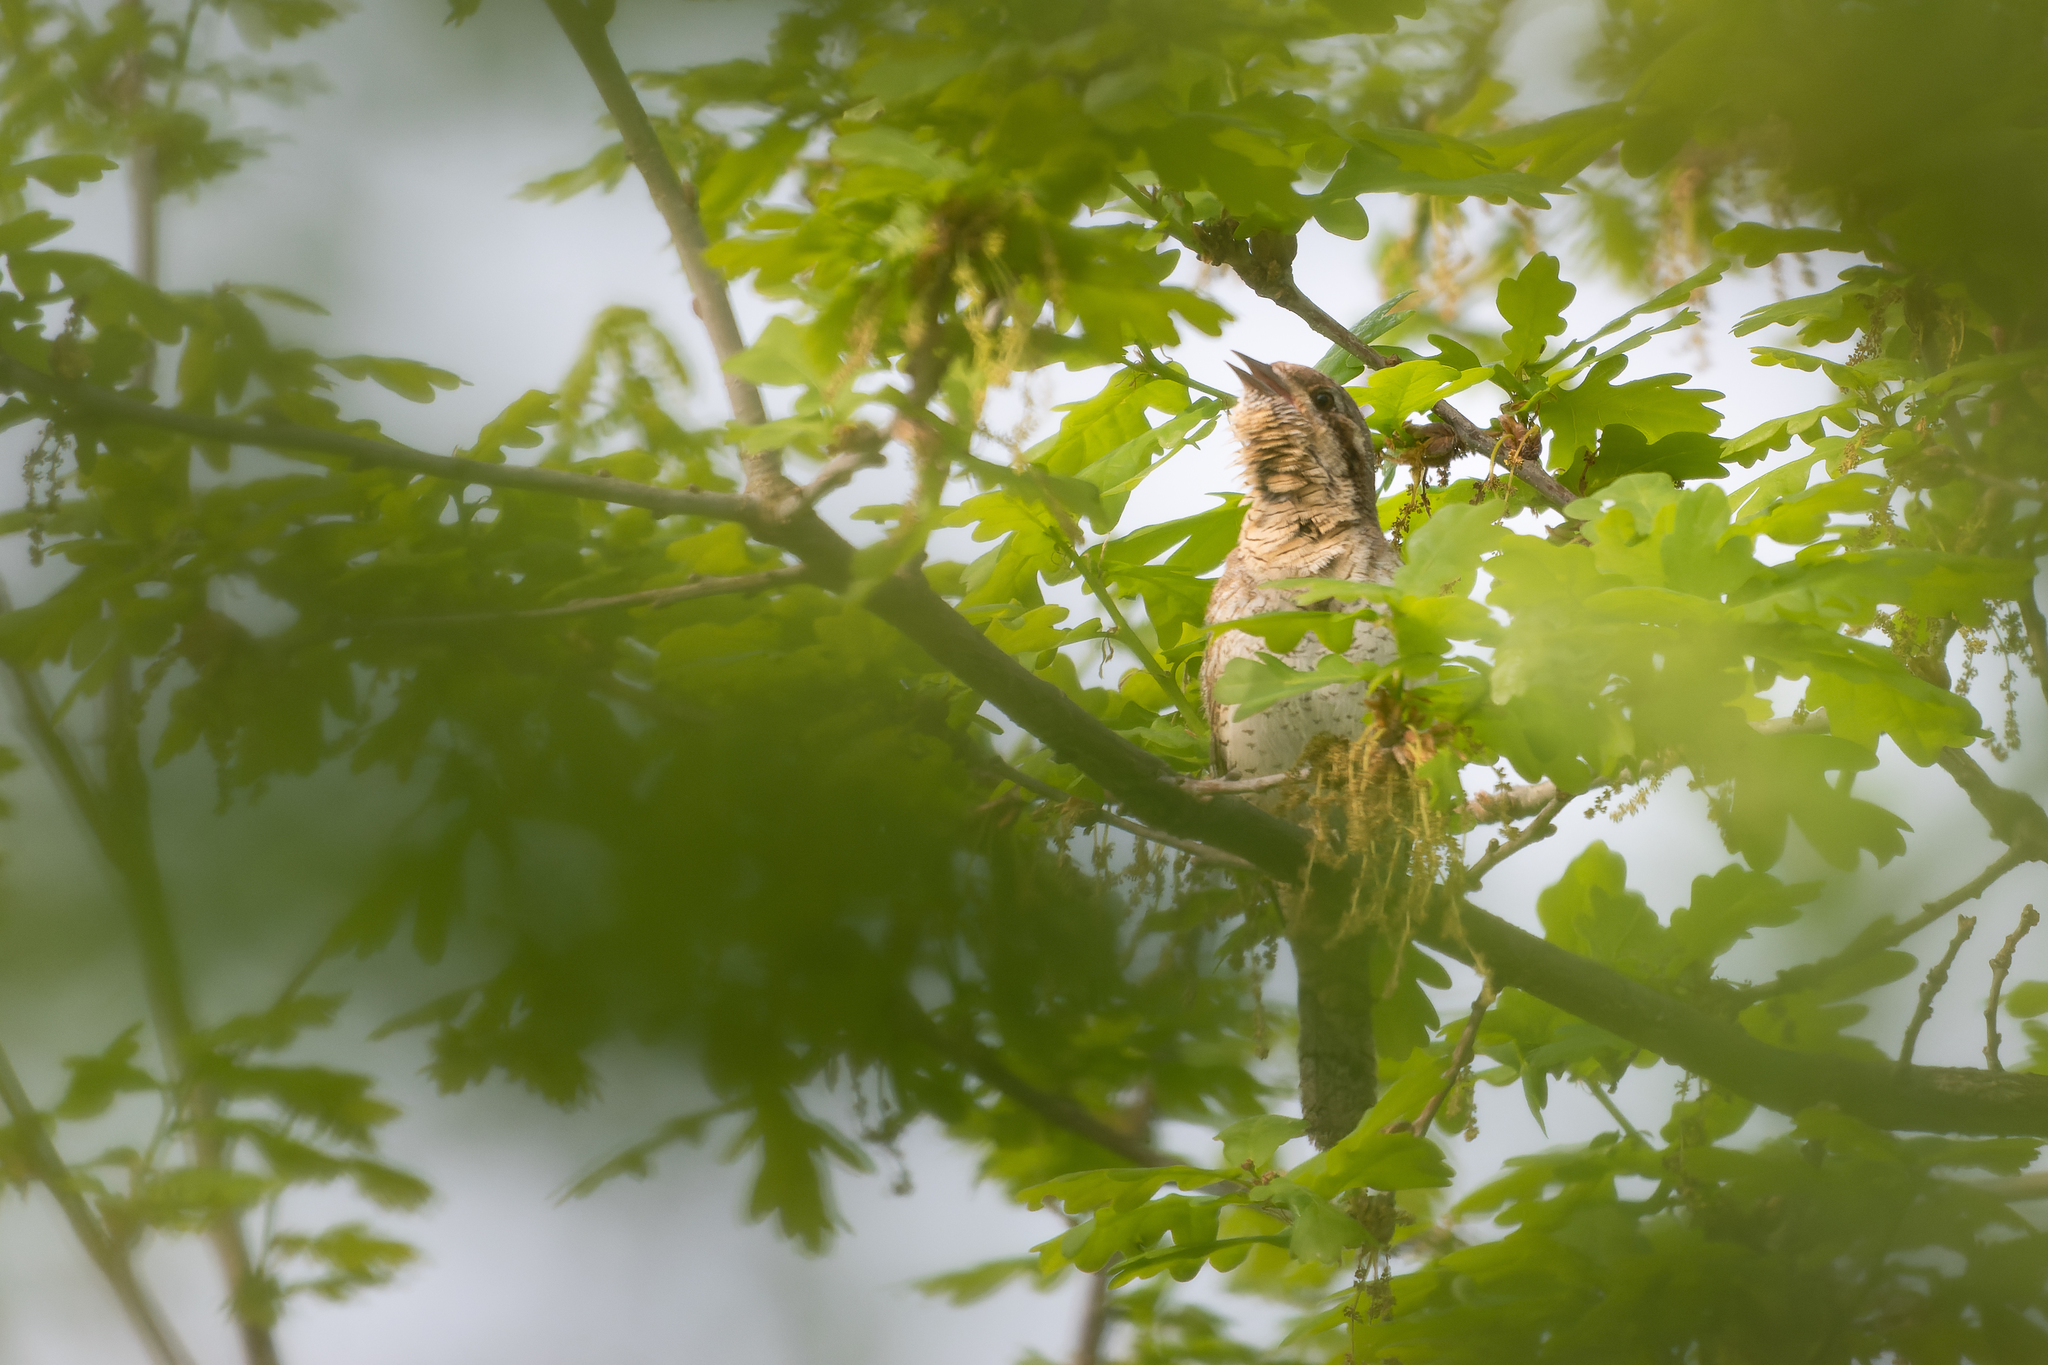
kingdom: Animalia
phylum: Chordata
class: Aves
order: Piciformes
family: Picidae
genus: Jynx
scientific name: Jynx torquilla
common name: Eurasian wryneck
